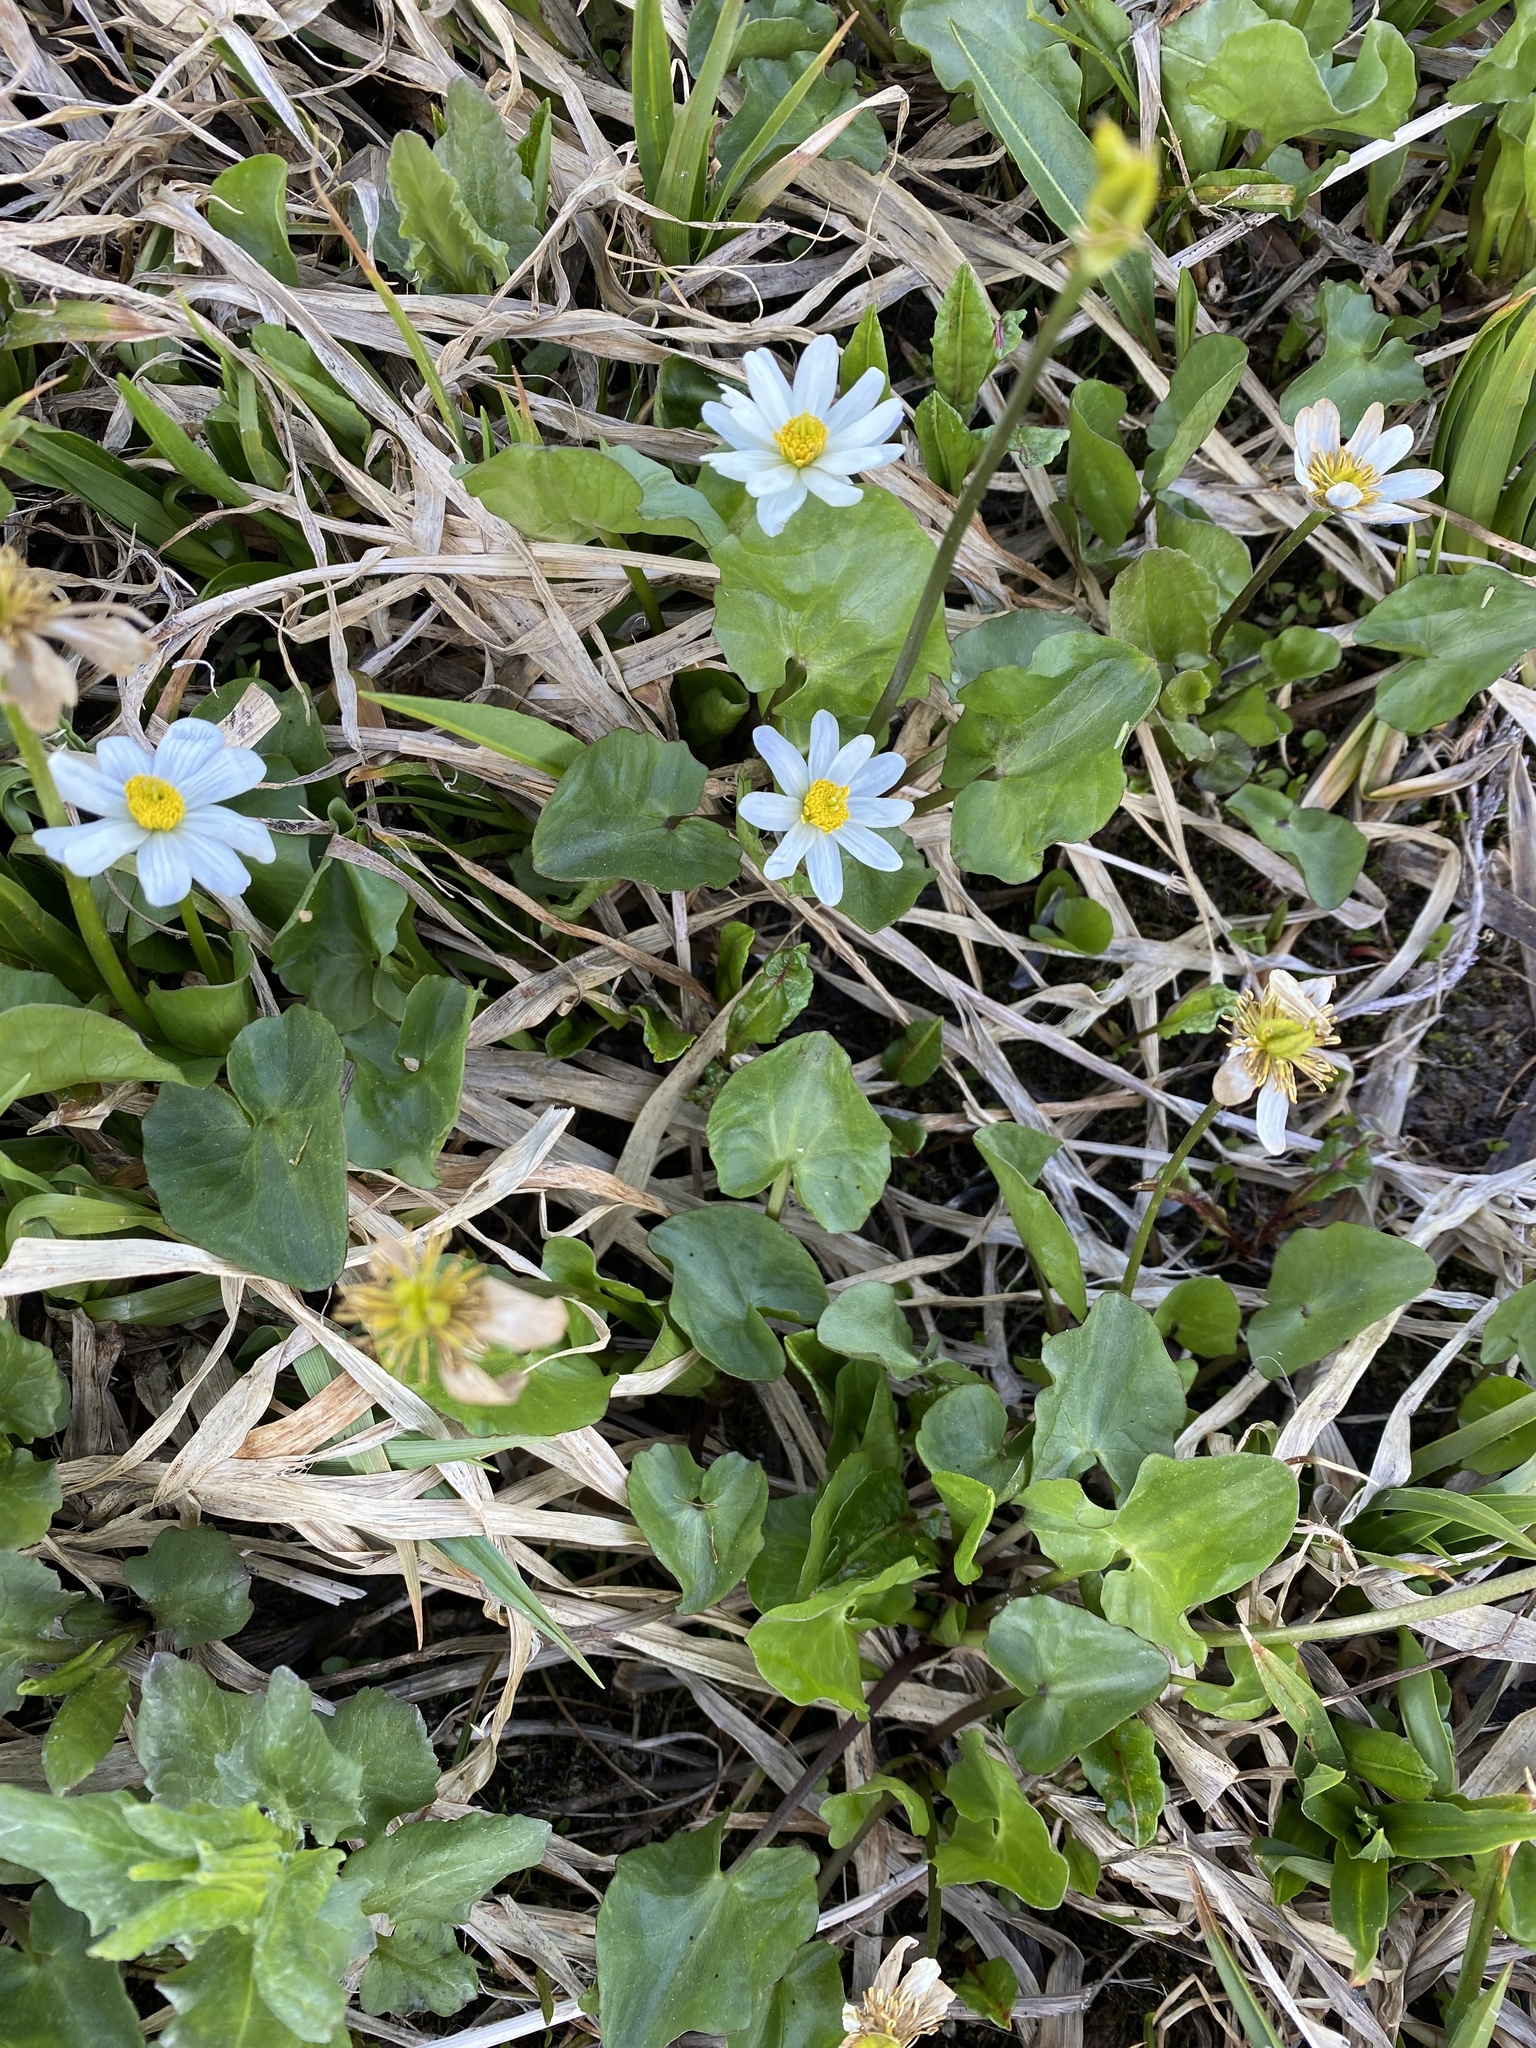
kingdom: Plantae
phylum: Tracheophyta
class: Magnoliopsida
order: Ranunculales
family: Ranunculaceae
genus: Caltha
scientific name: Caltha leptosepala
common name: Elkslip
